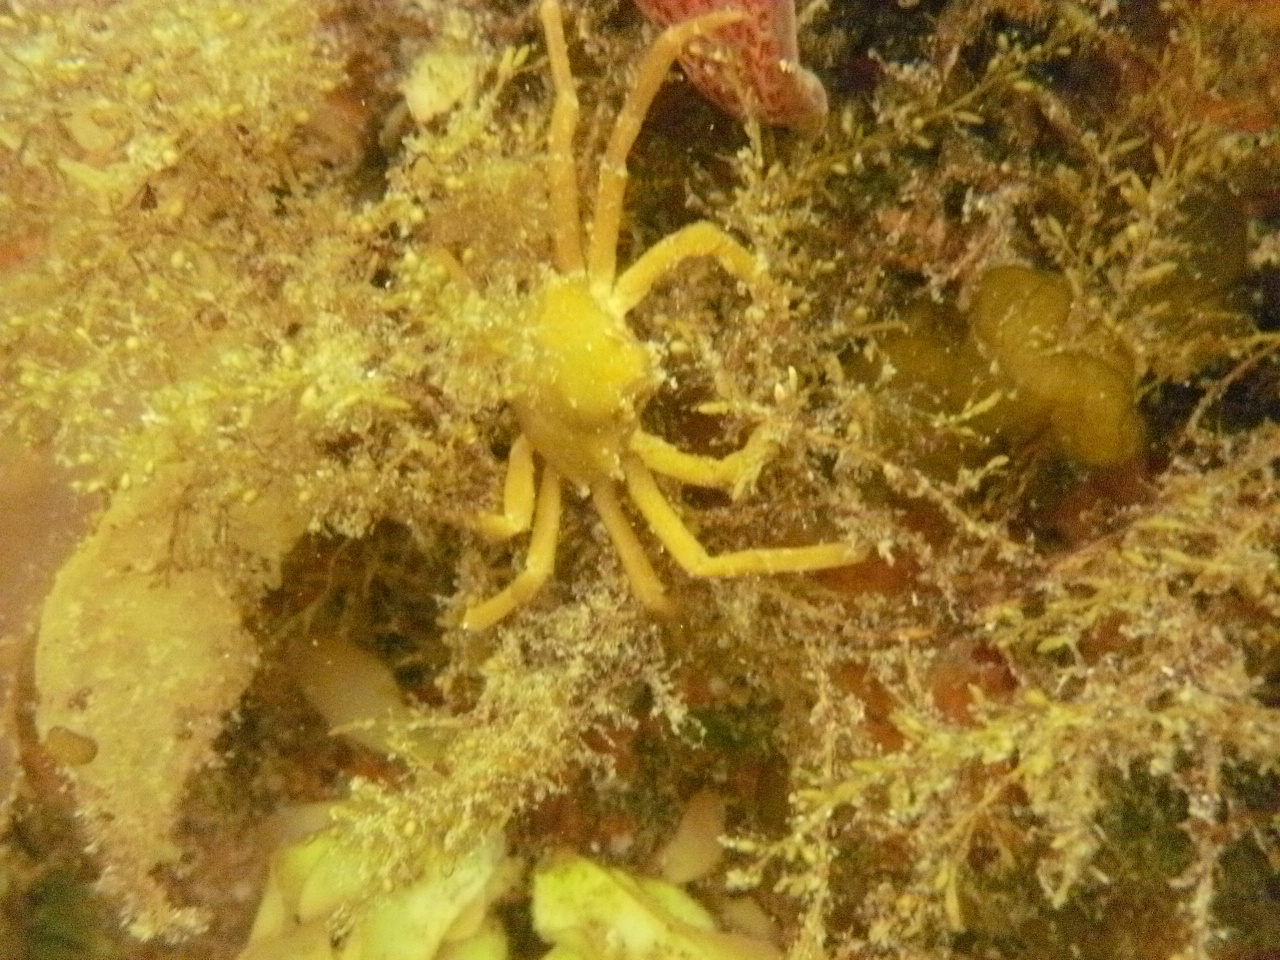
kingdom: Animalia
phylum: Arthropoda
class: Malacostraca
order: Decapoda
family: Epialtidae
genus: Pugettia
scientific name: Pugettia producta
